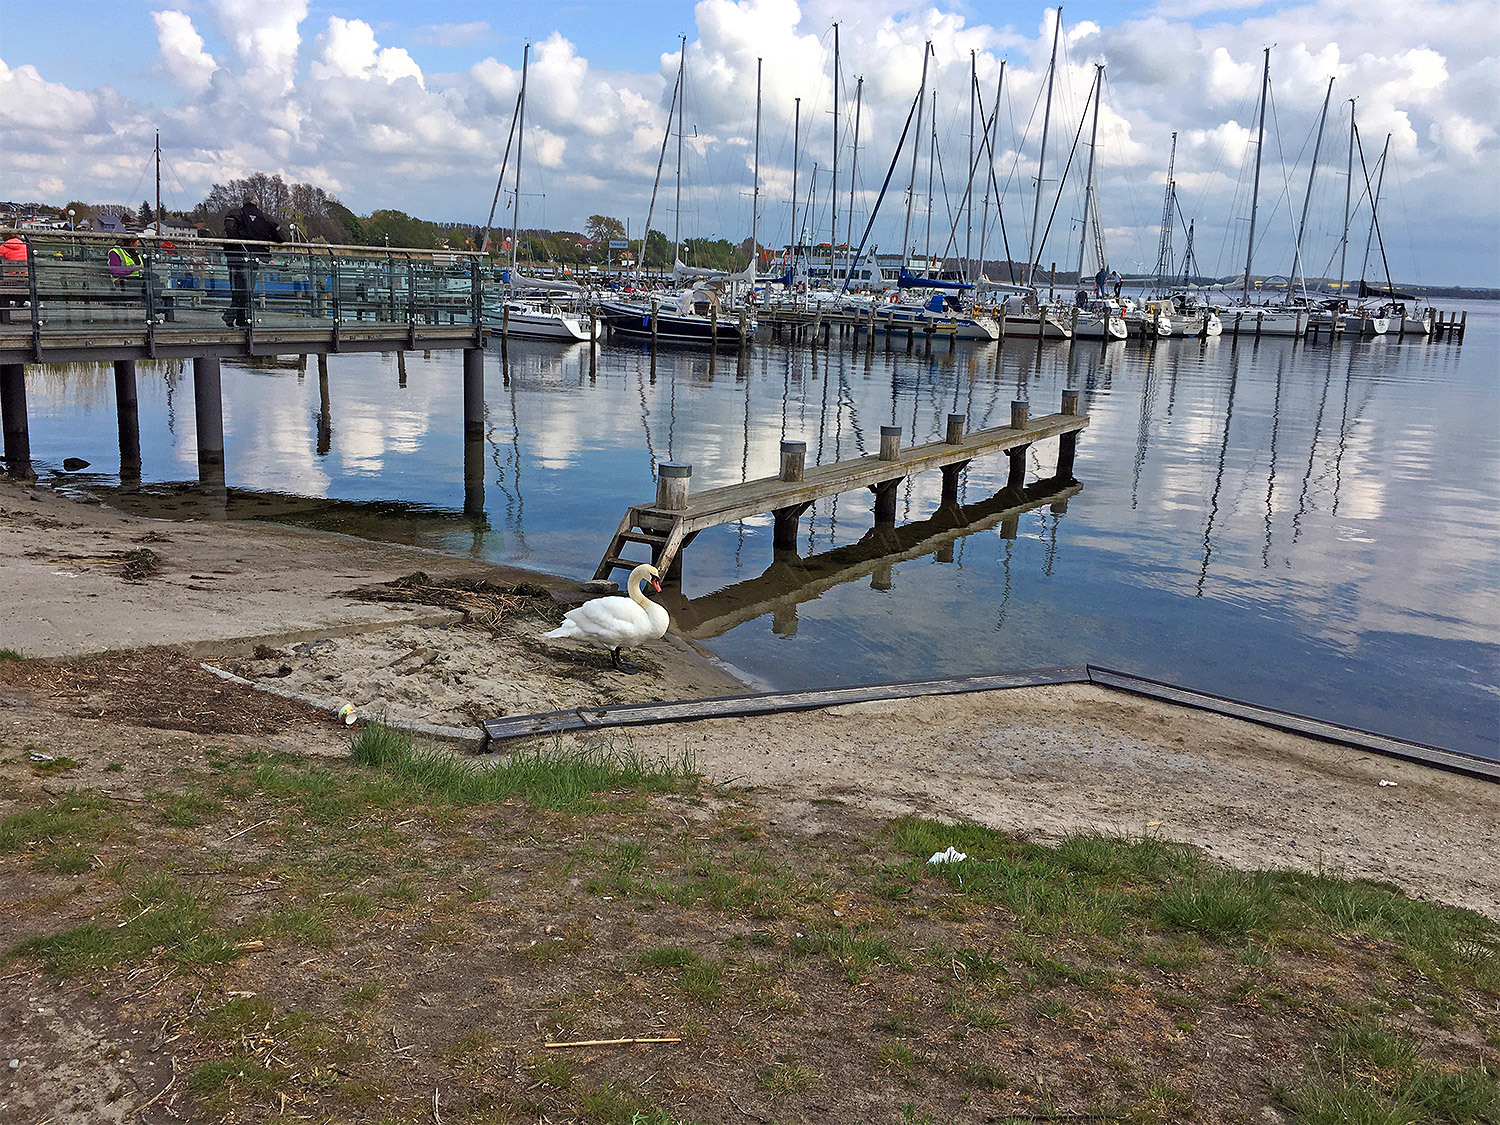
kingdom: Animalia
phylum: Chordata
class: Aves
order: Anseriformes
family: Anatidae
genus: Cygnus
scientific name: Cygnus olor
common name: Mute swan
